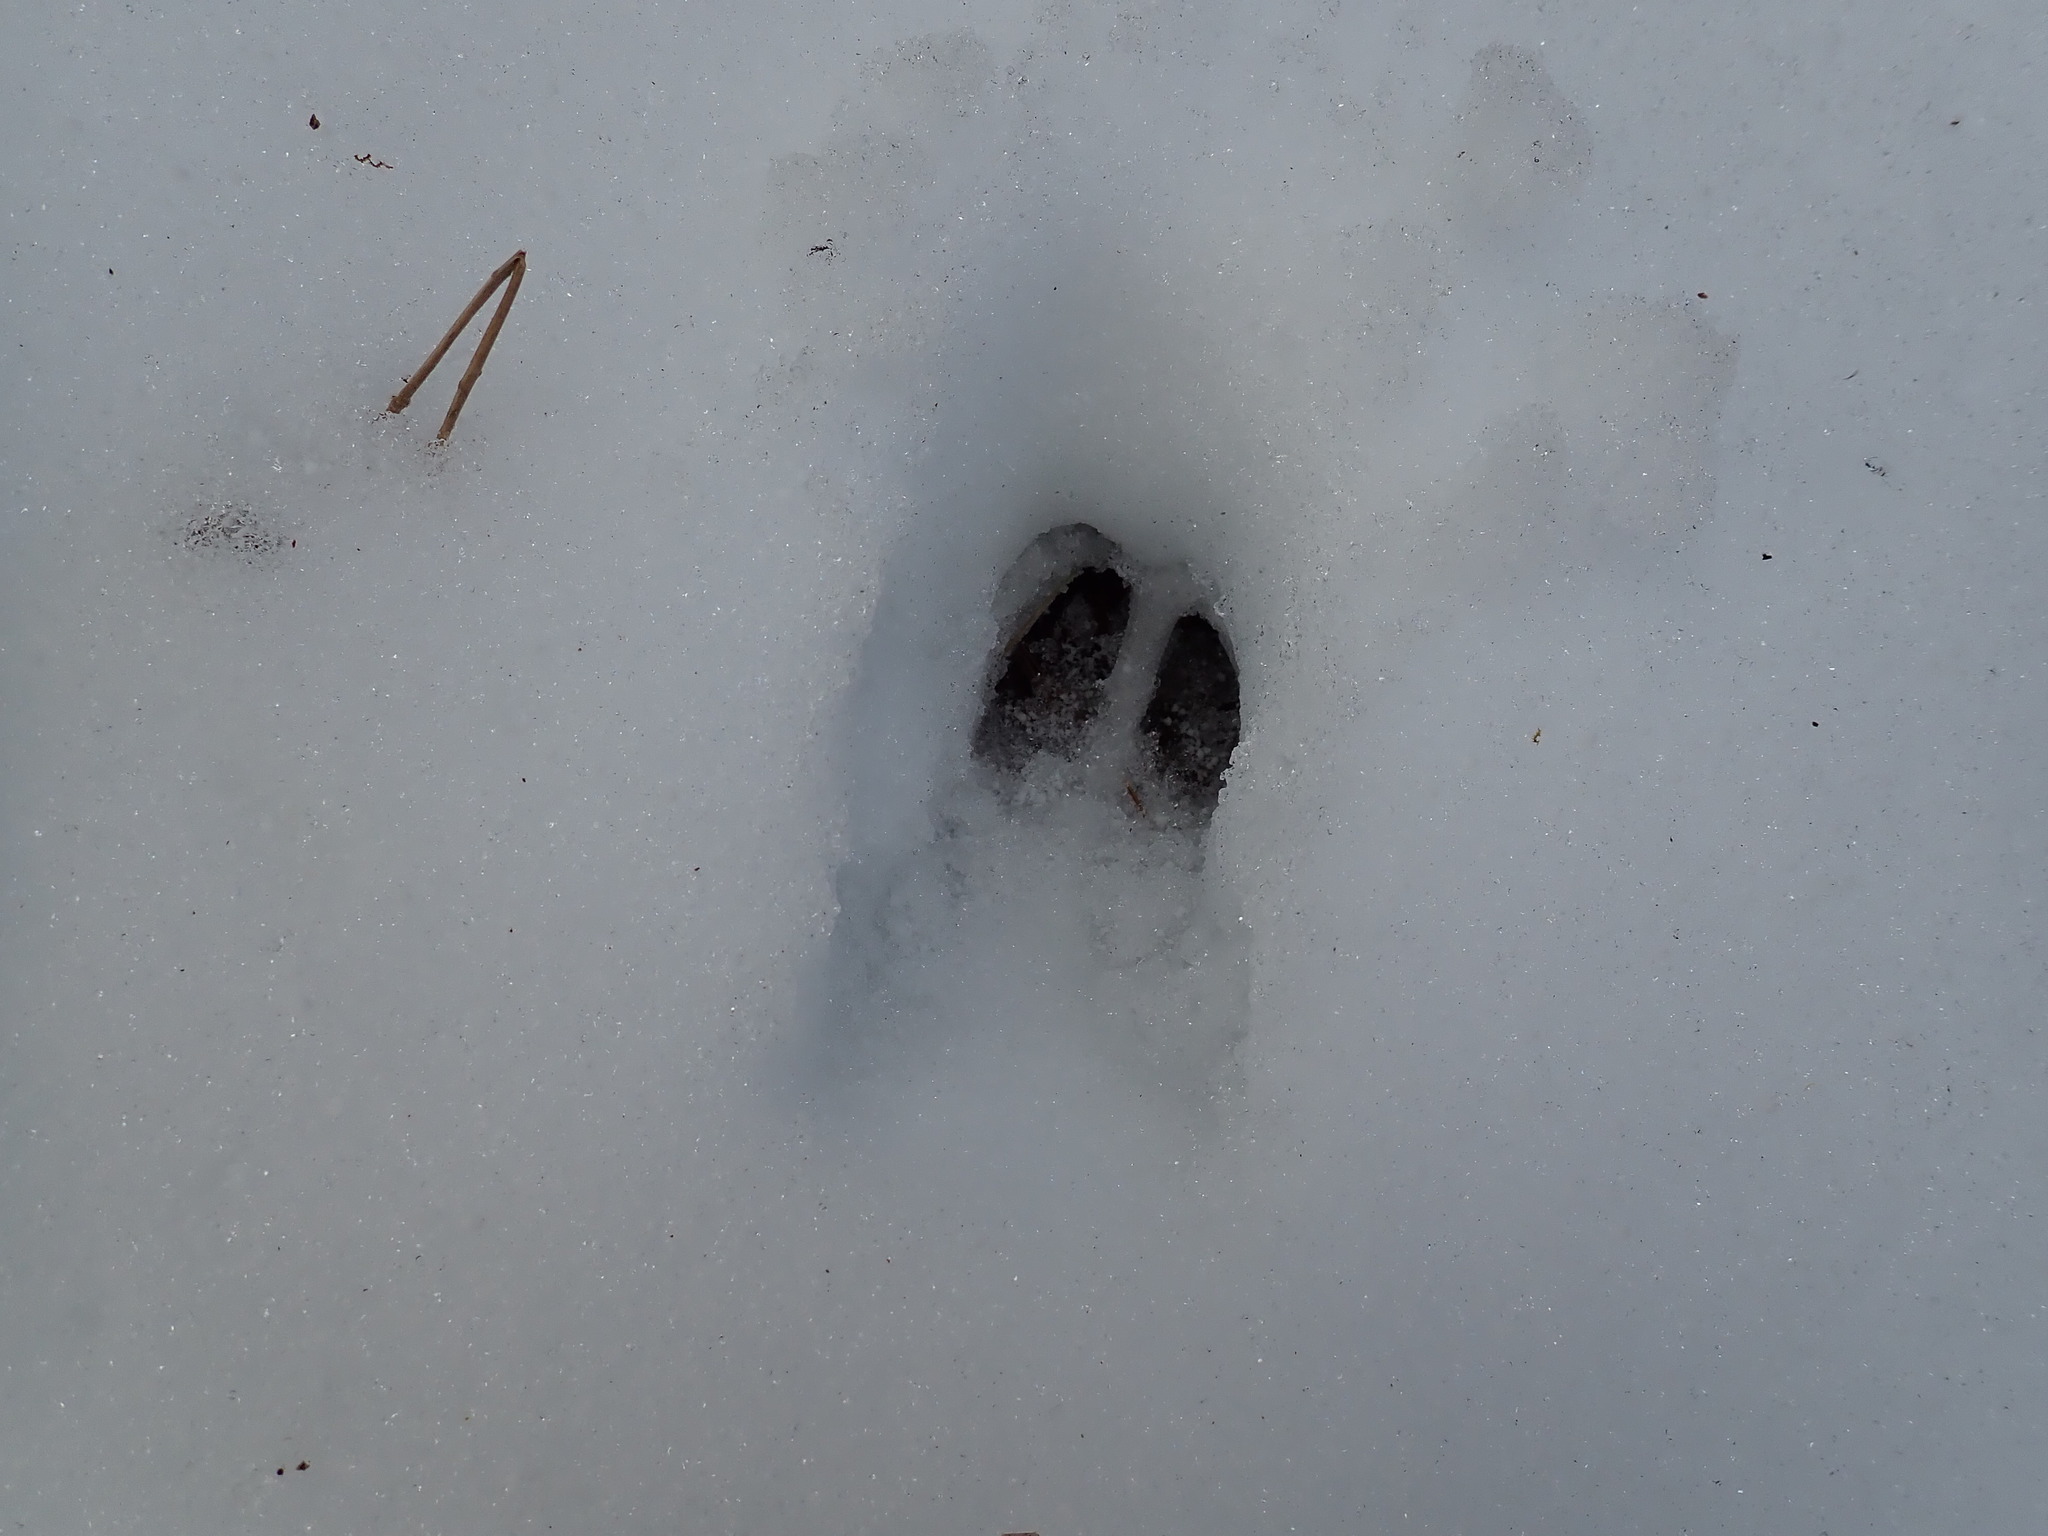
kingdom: Animalia
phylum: Chordata
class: Mammalia
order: Artiodactyla
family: Cervidae
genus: Odocoileus
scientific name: Odocoileus virginianus
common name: White-tailed deer
